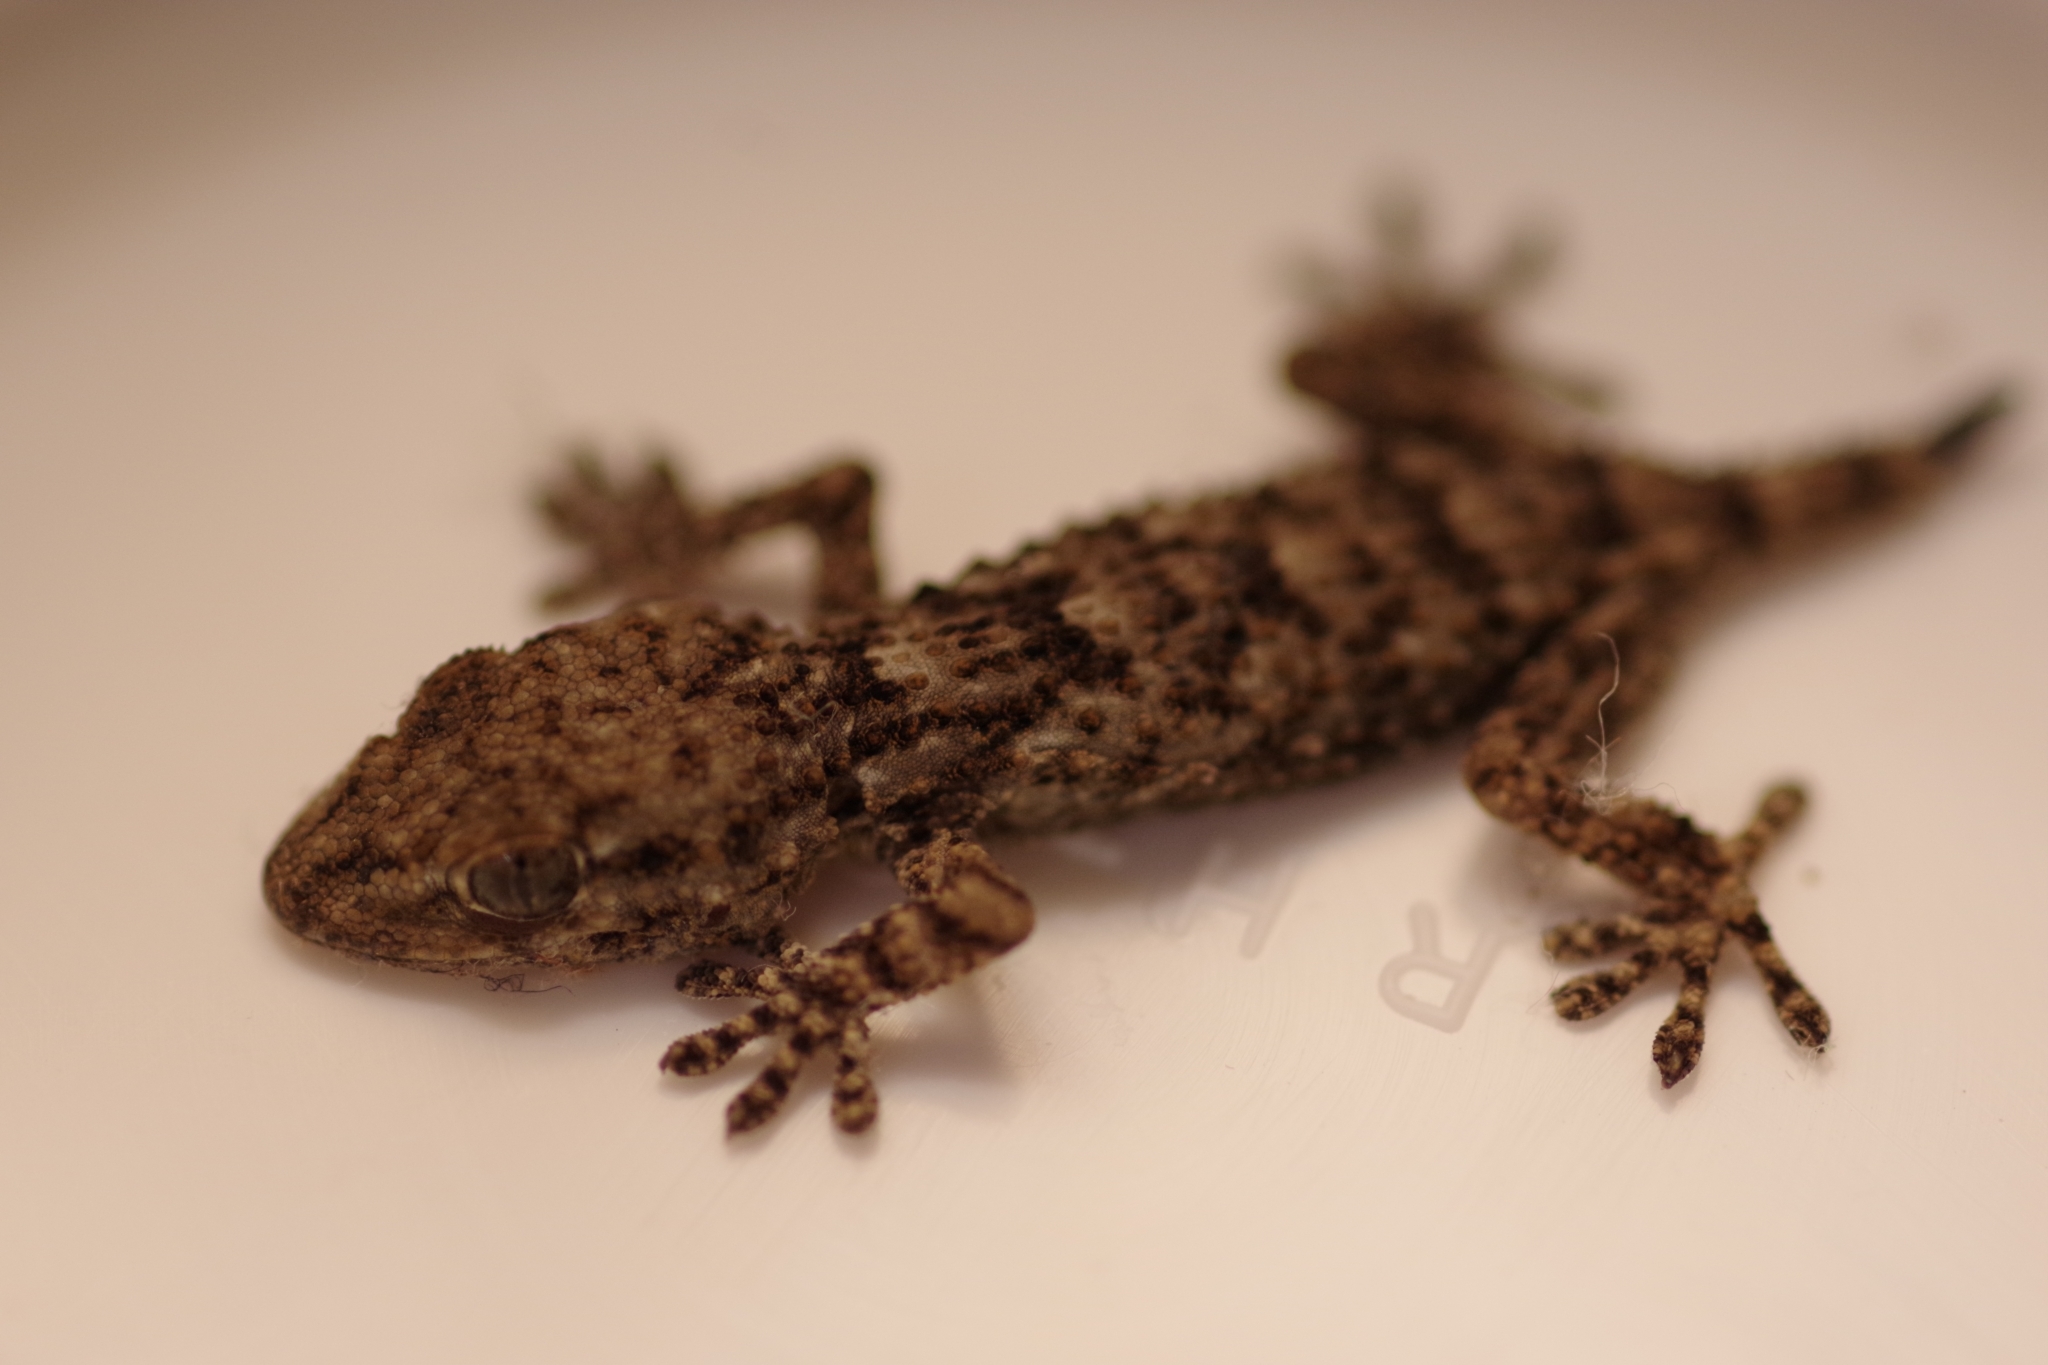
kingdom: Animalia
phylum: Chordata
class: Squamata
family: Phyllodactylidae
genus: Tarentola
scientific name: Tarentola mauritanica
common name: Moorish gecko
